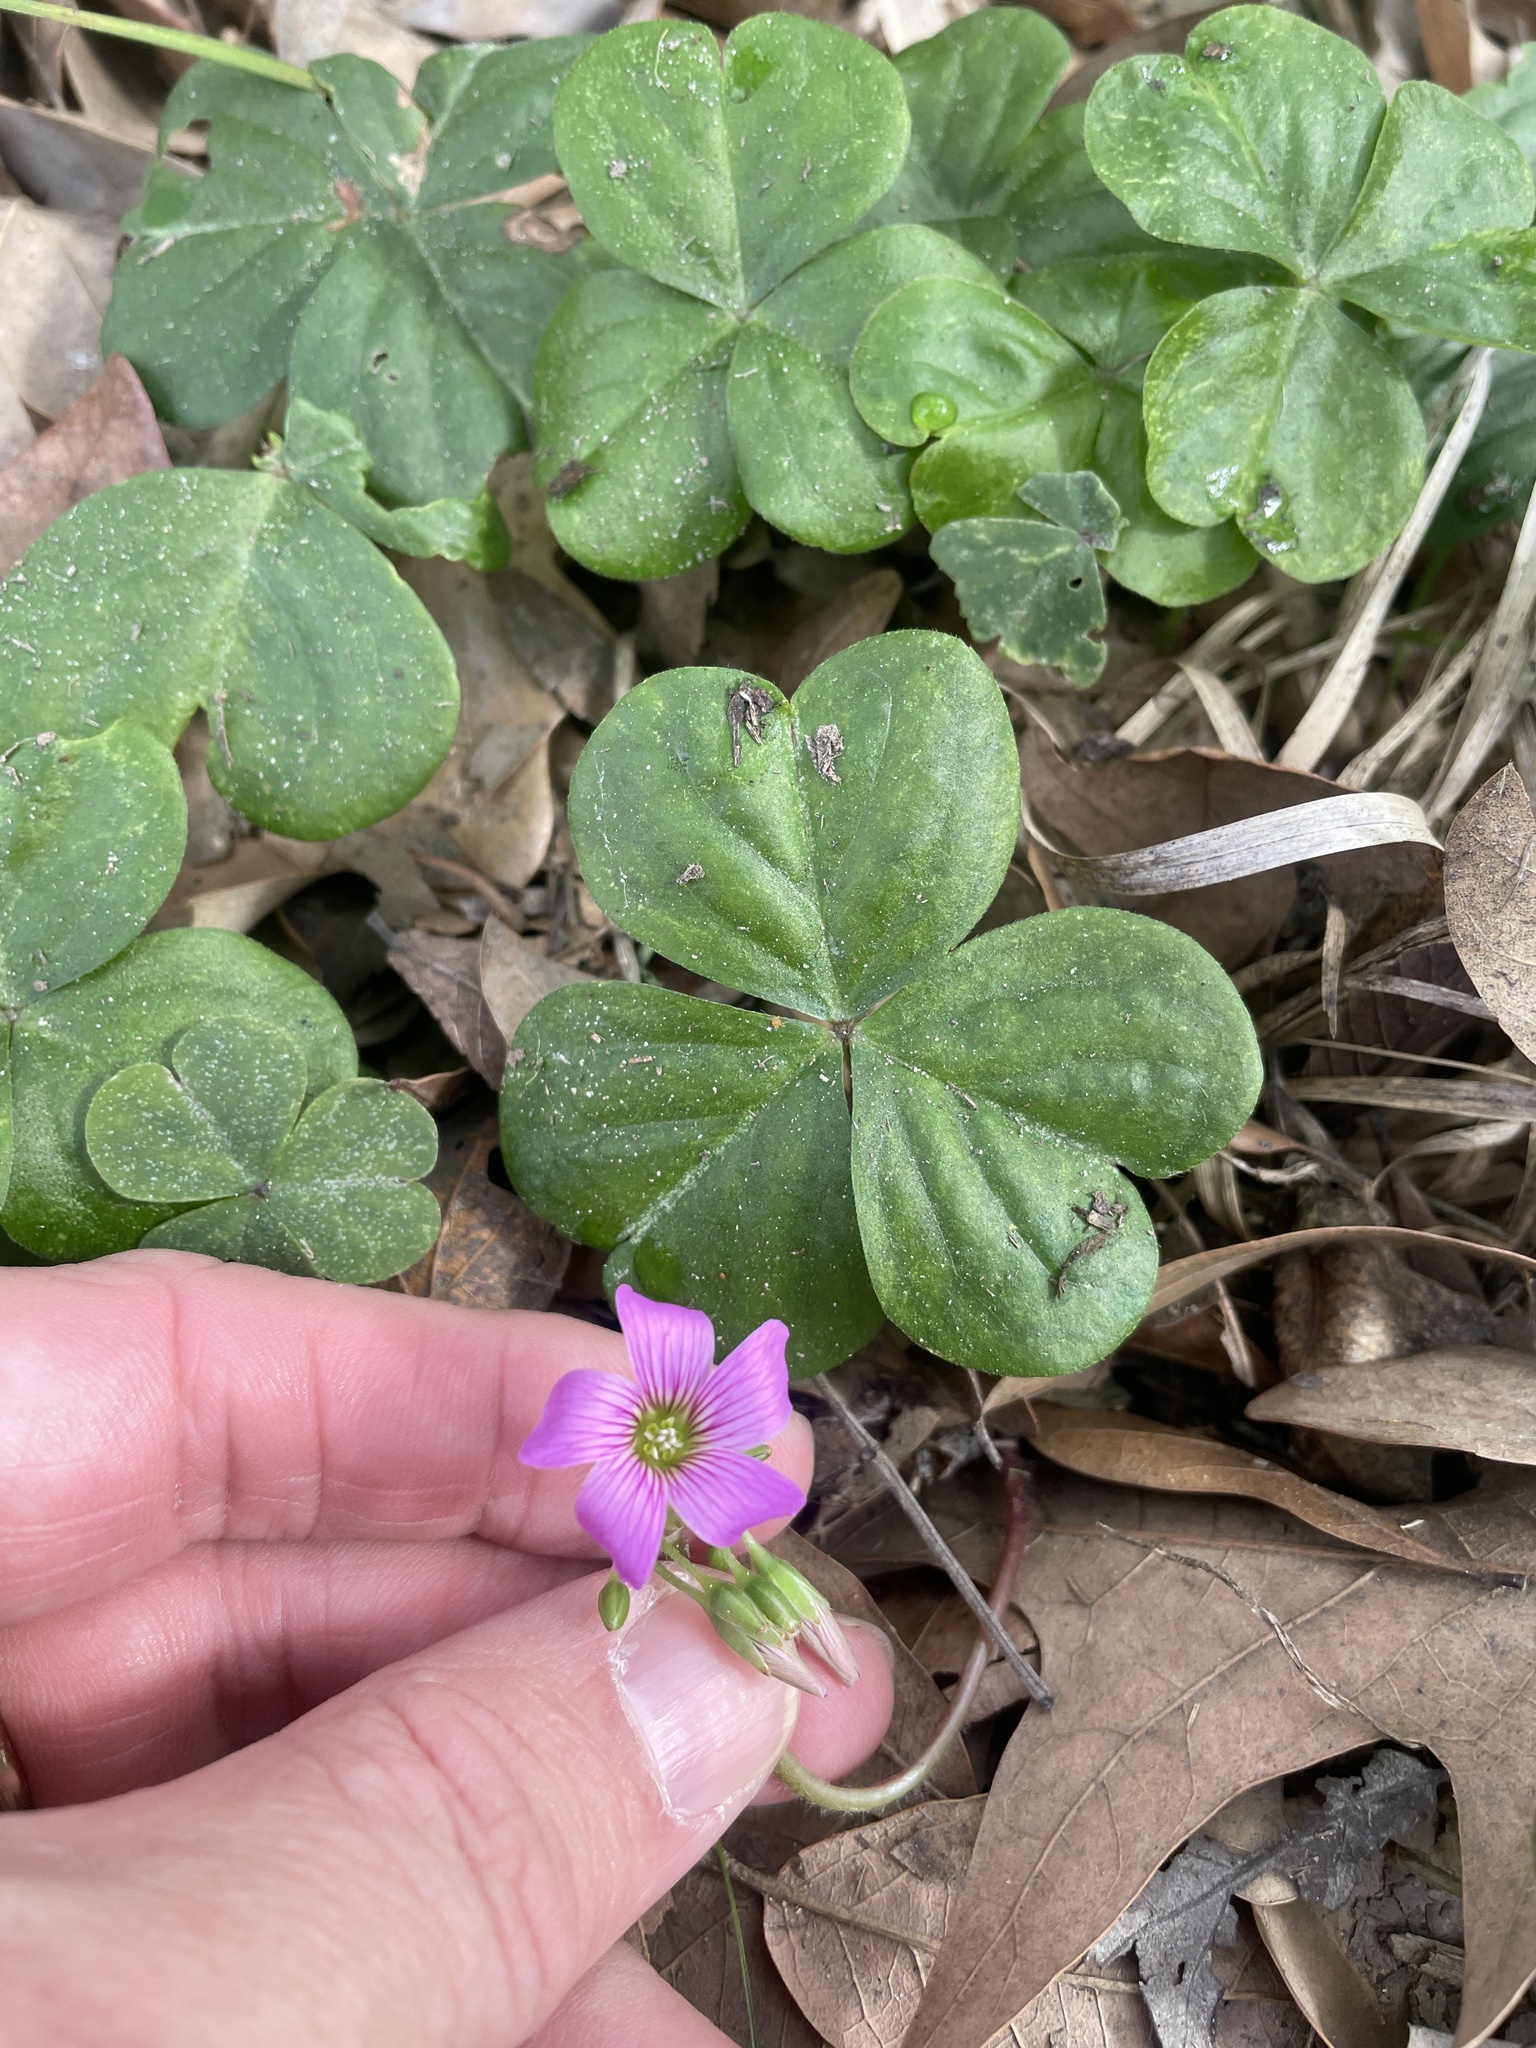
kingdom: Plantae
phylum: Tracheophyta
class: Magnoliopsida
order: Oxalidales
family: Oxalidaceae
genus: Oxalis
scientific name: Oxalis debilis
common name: Large-flowered pink-sorrel
